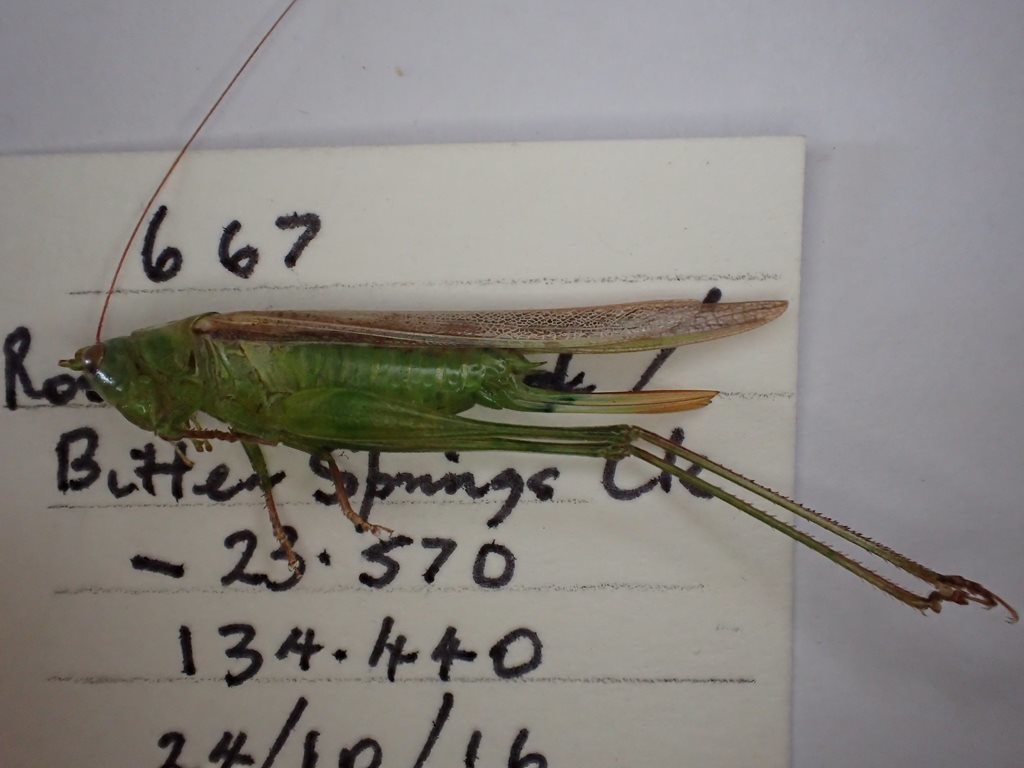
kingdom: Animalia
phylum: Arthropoda
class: Insecta
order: Orthoptera
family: Tettigoniidae
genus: Conocephalus
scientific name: Conocephalus upoluensis
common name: Upolu meadow katydid
